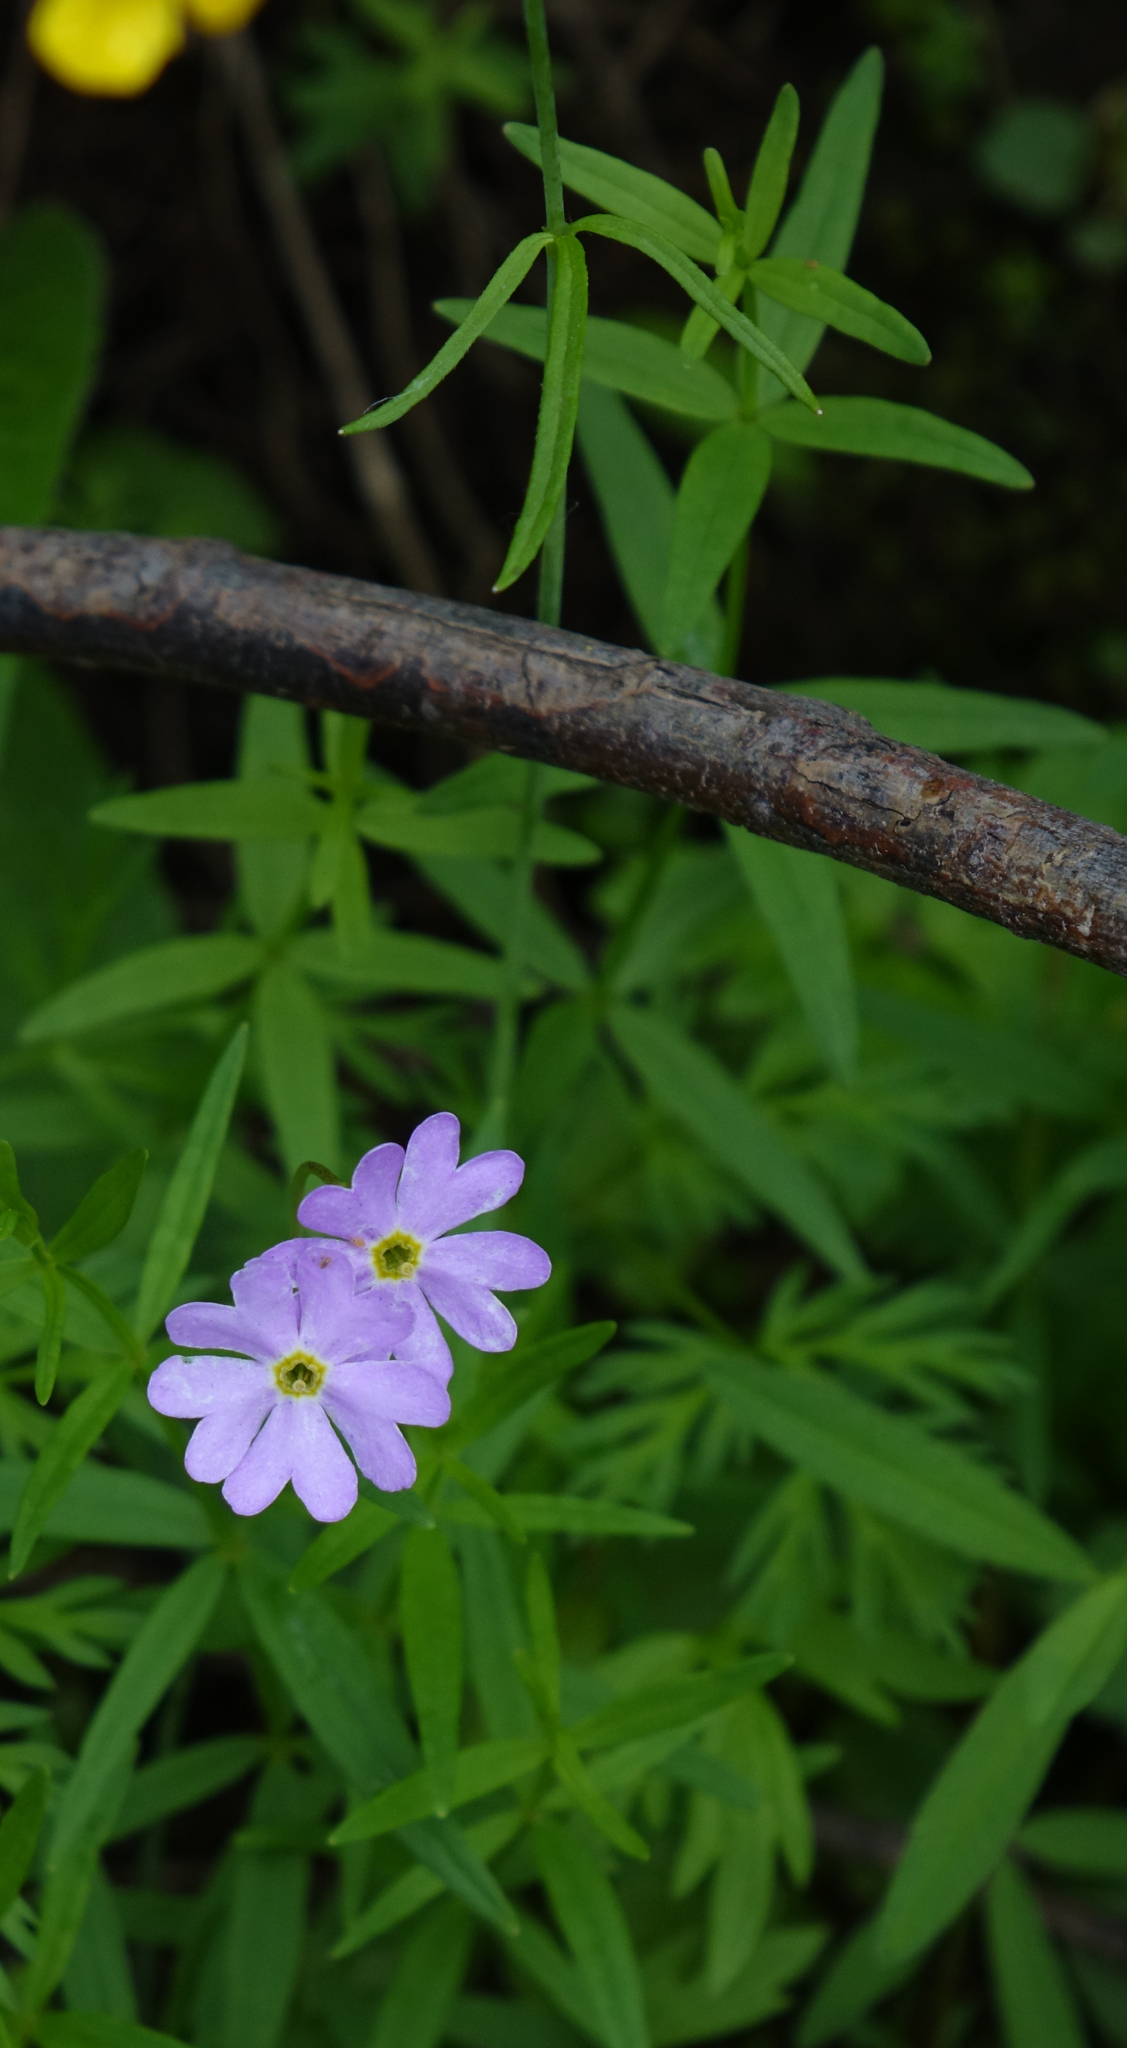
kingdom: Plantae
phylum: Tracheophyta
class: Magnoliopsida
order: Gentianales
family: Rubiaceae
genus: Galium
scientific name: Galium boreale
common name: Northern bedstraw
